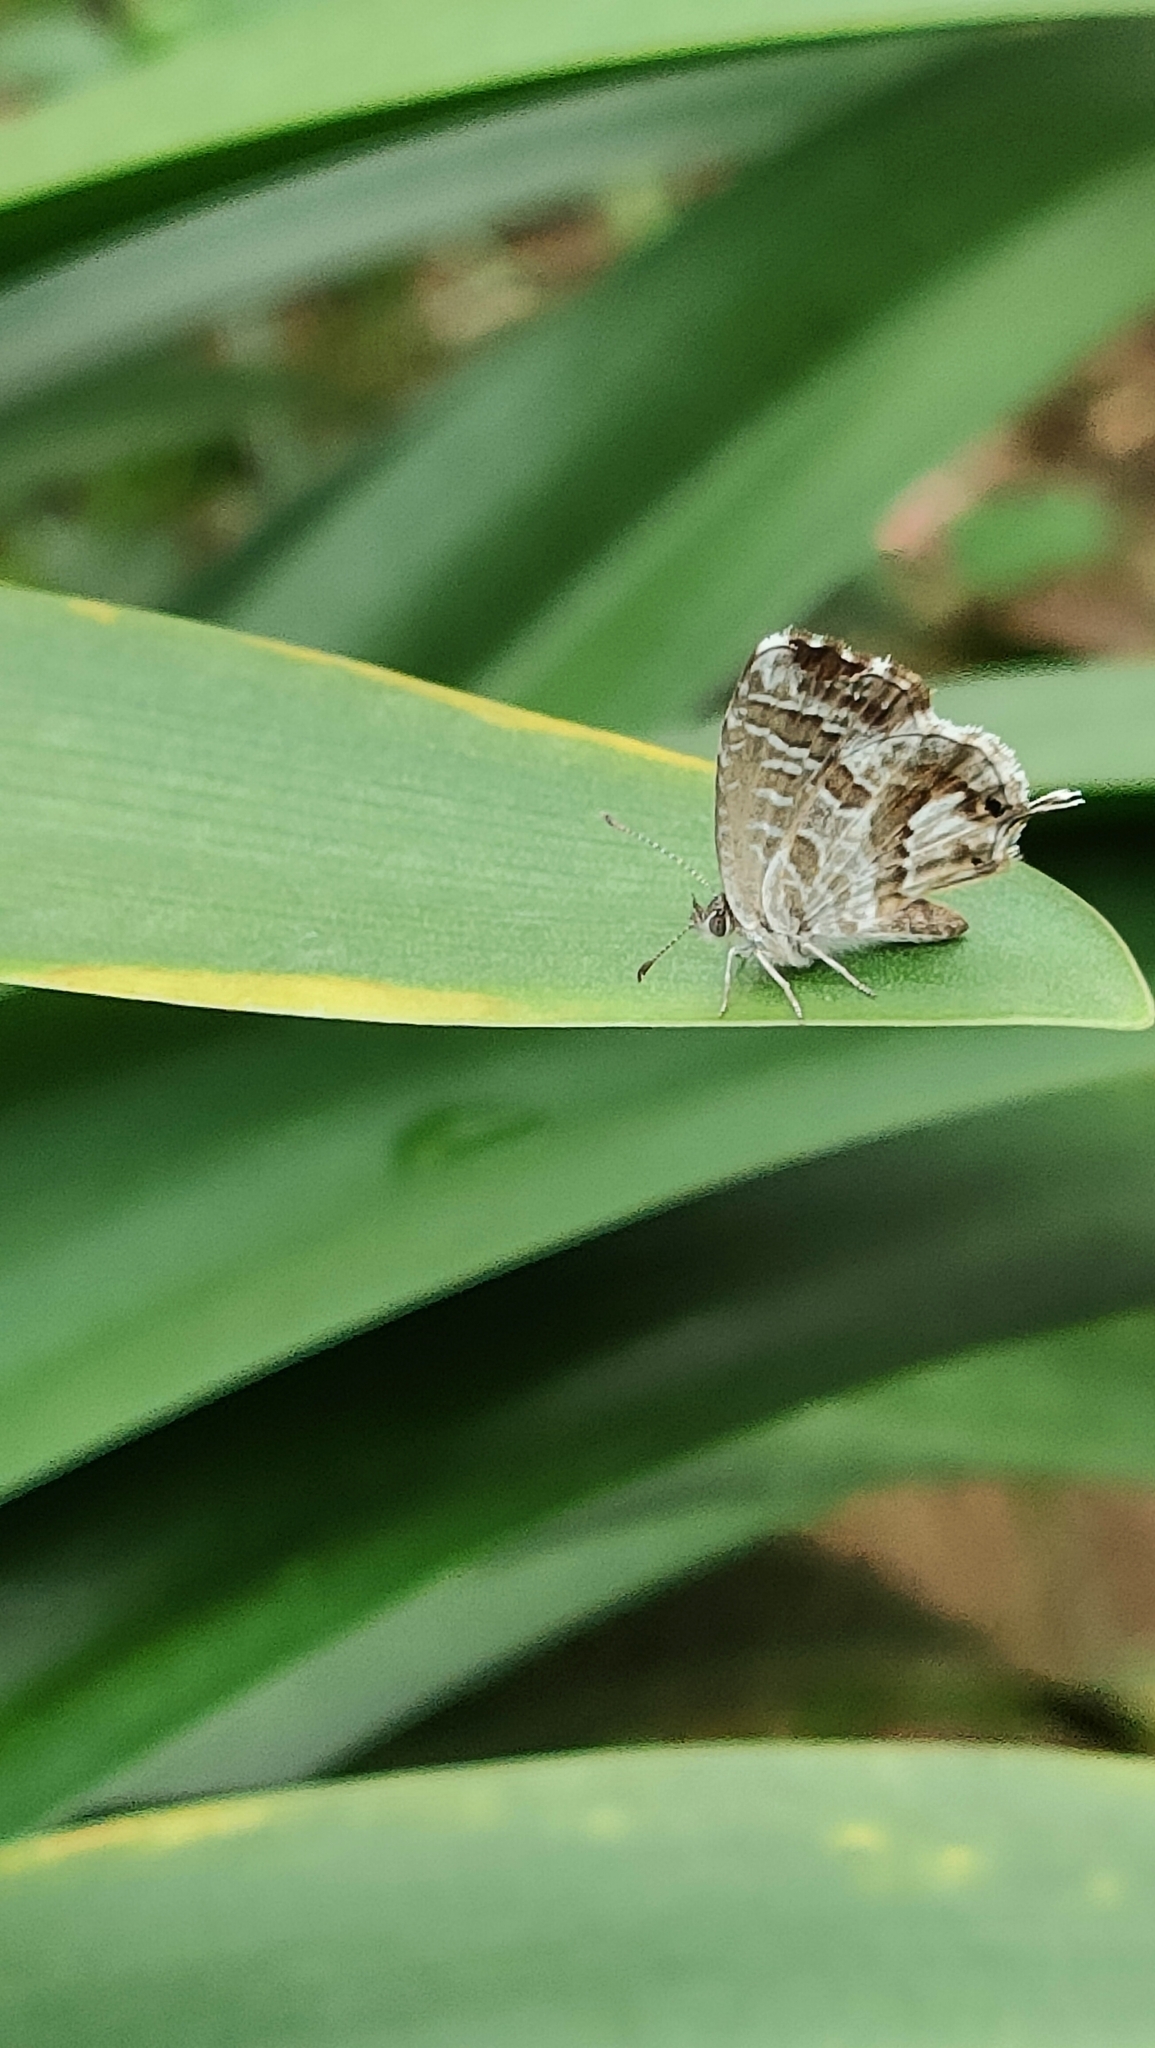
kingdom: Animalia
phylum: Arthropoda
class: Insecta
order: Lepidoptera
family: Lycaenidae
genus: Cacyreus
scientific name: Cacyreus marshalli
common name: Geranium bronze
